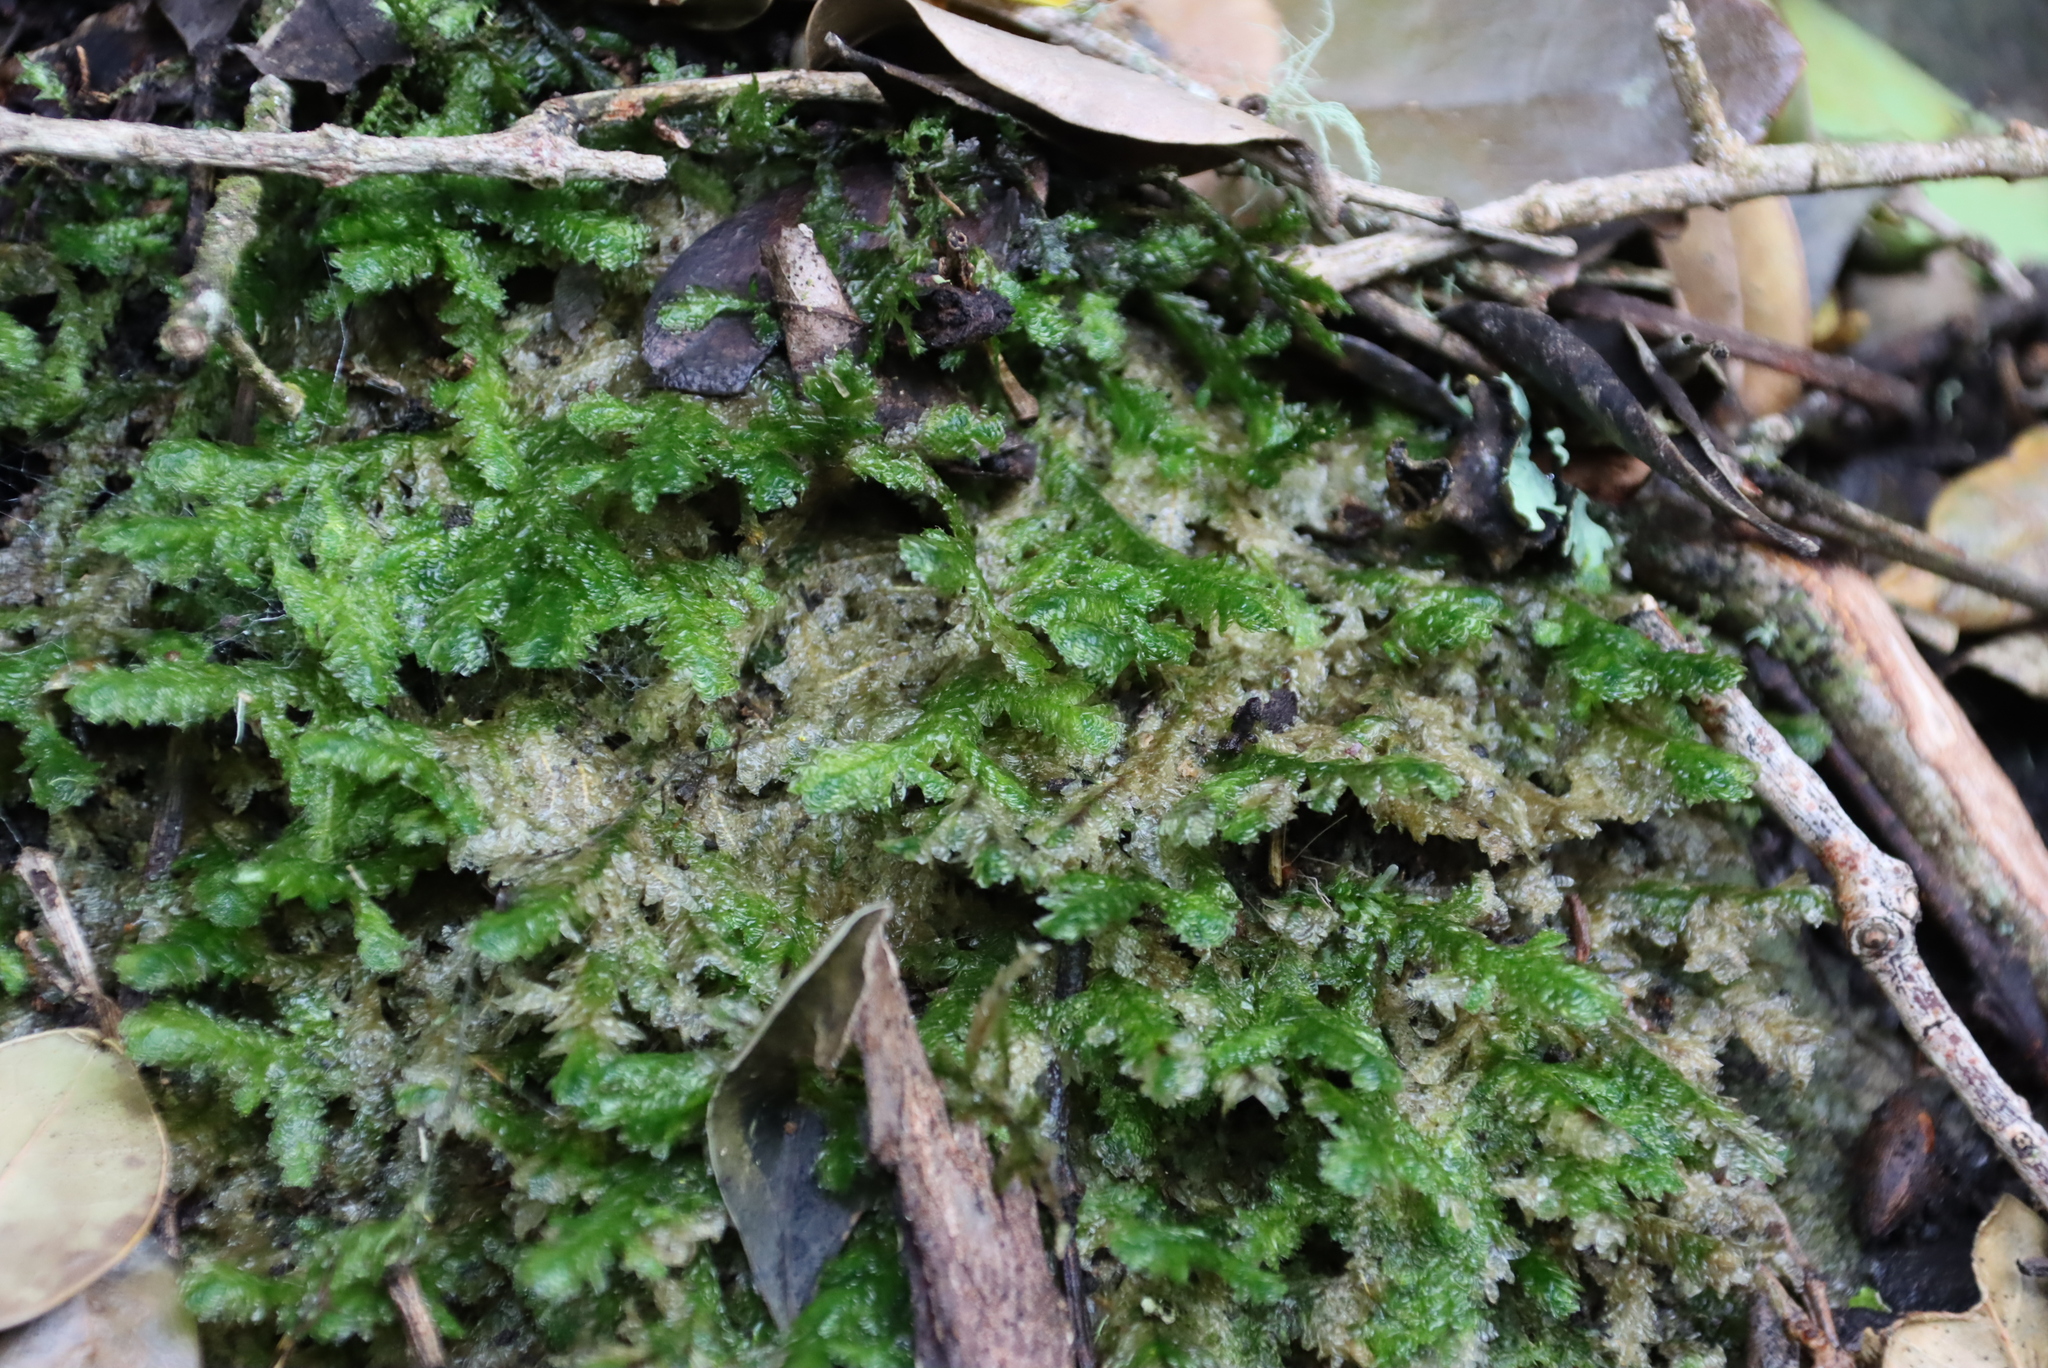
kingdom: Plantae
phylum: Bryophyta
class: Bryopsida
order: Hypnales
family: Neckeraceae
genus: Alleniella
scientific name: Alleniella ehrenbergii
